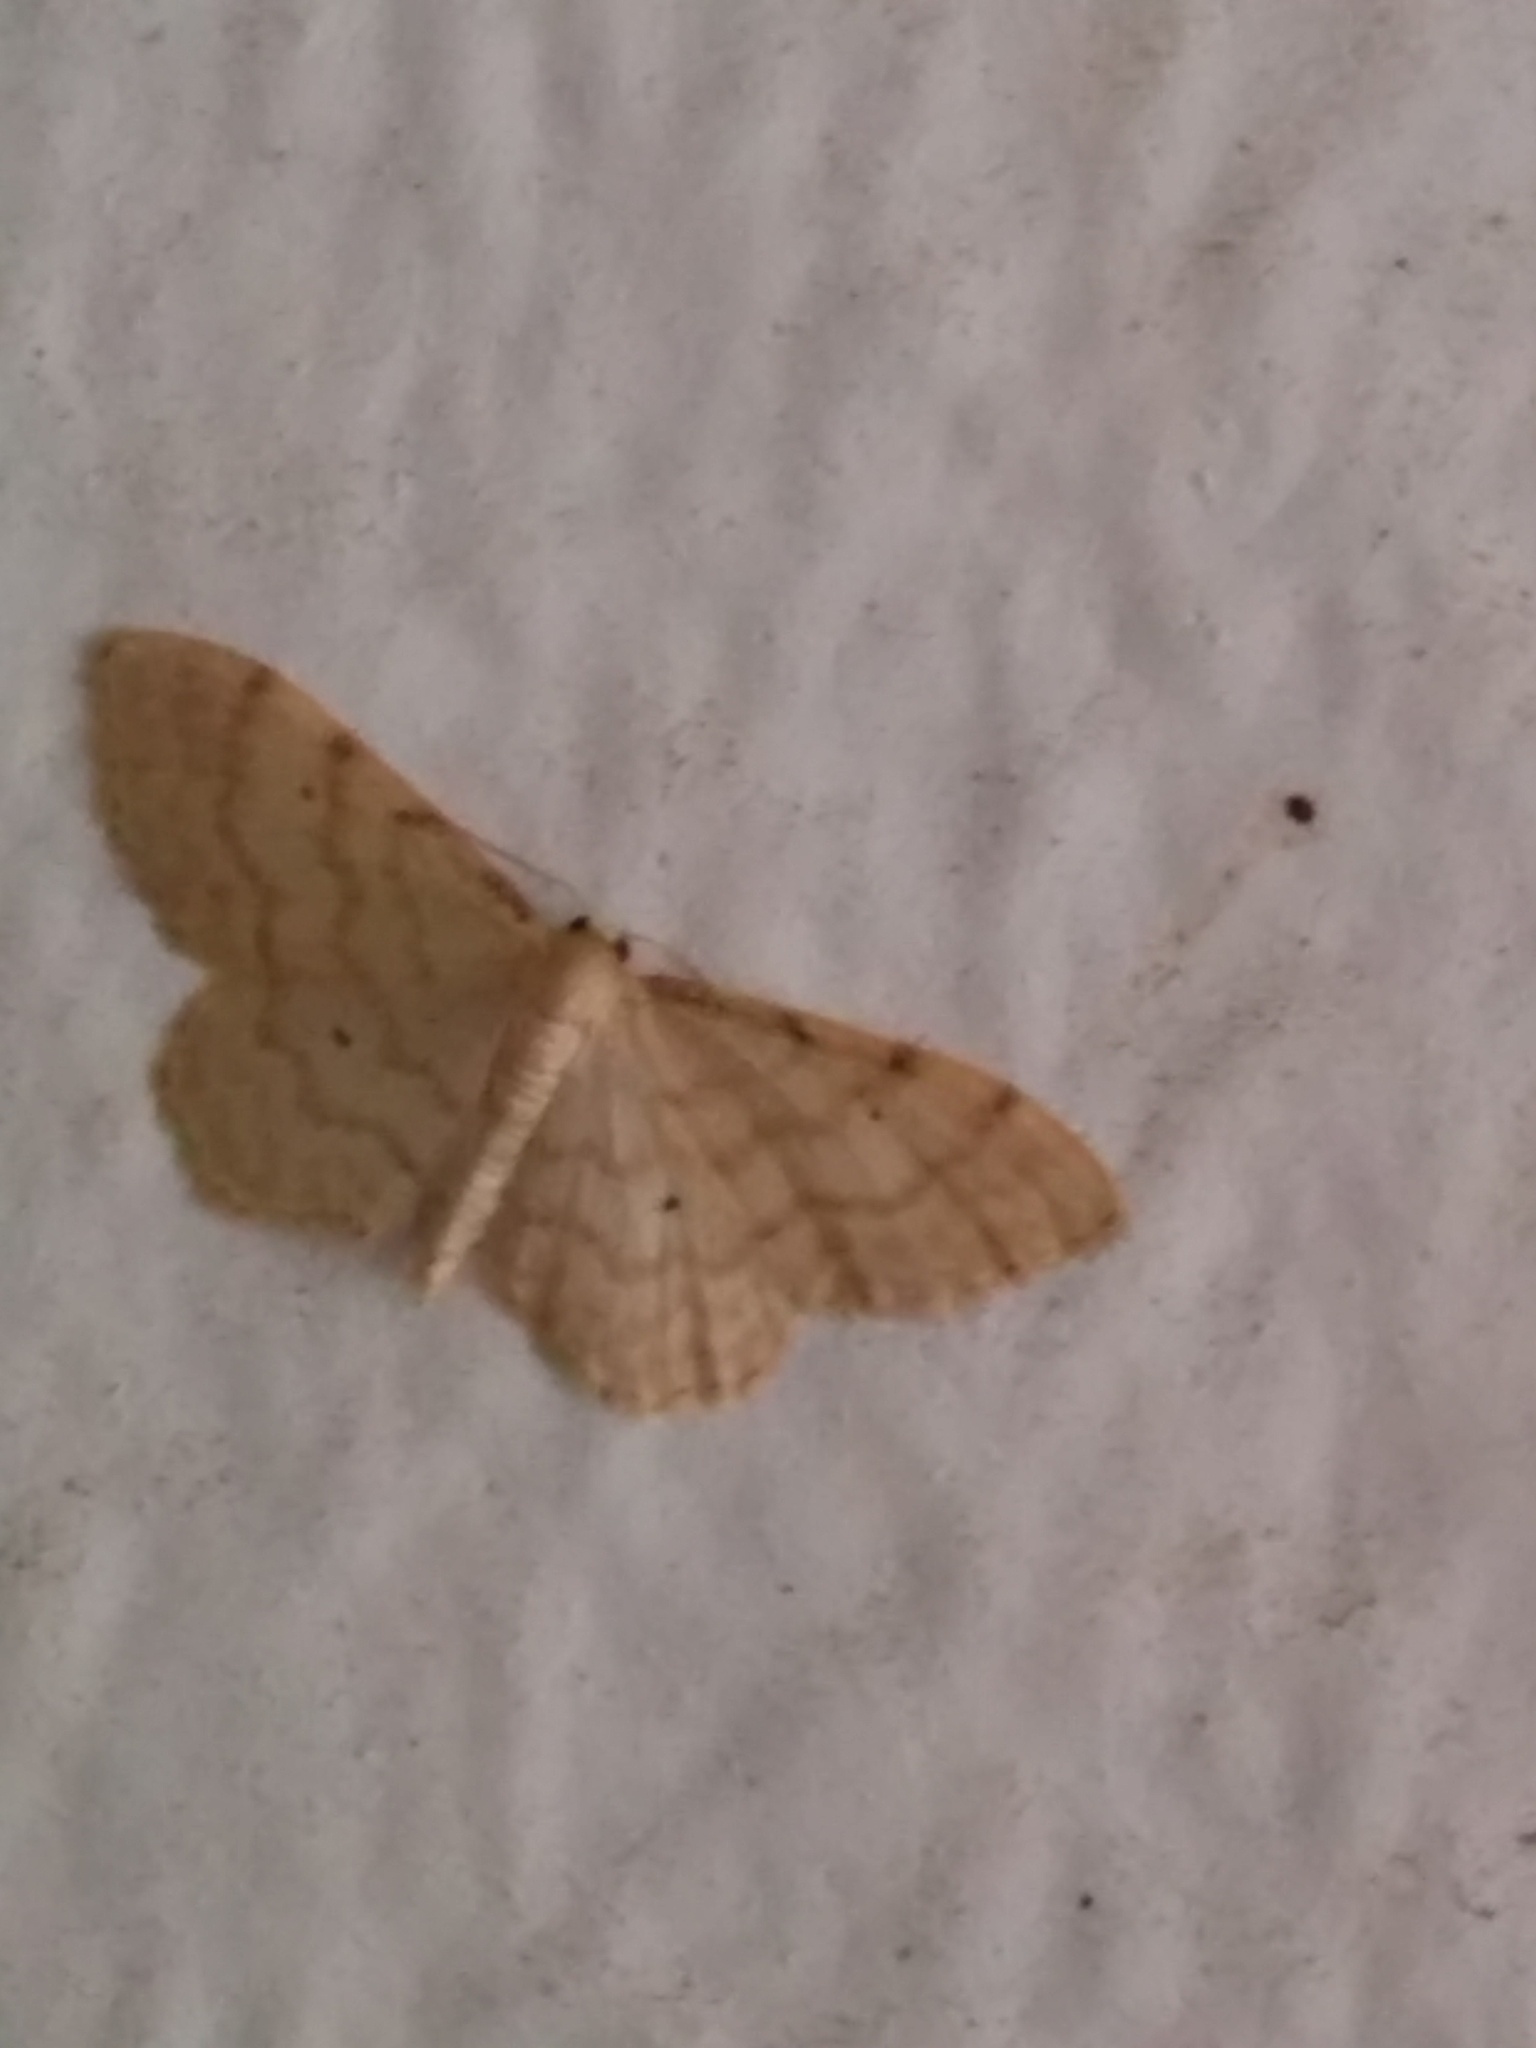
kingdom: Animalia
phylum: Arthropoda
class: Insecta
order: Lepidoptera
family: Geometridae
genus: Idaea
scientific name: Idaea fuscovenosa
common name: Dwarf cream wave
